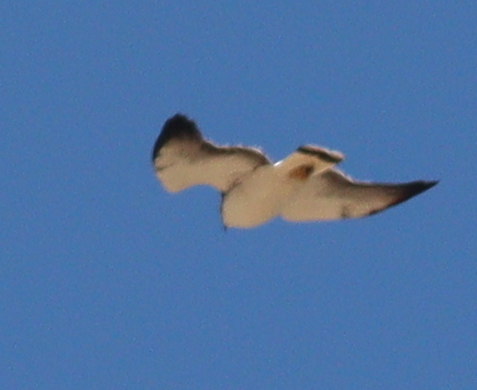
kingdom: Animalia
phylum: Chordata
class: Aves
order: Accipitriformes
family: Accipitridae
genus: Buteo
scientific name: Buteo polyosoma
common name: Variable hawk
